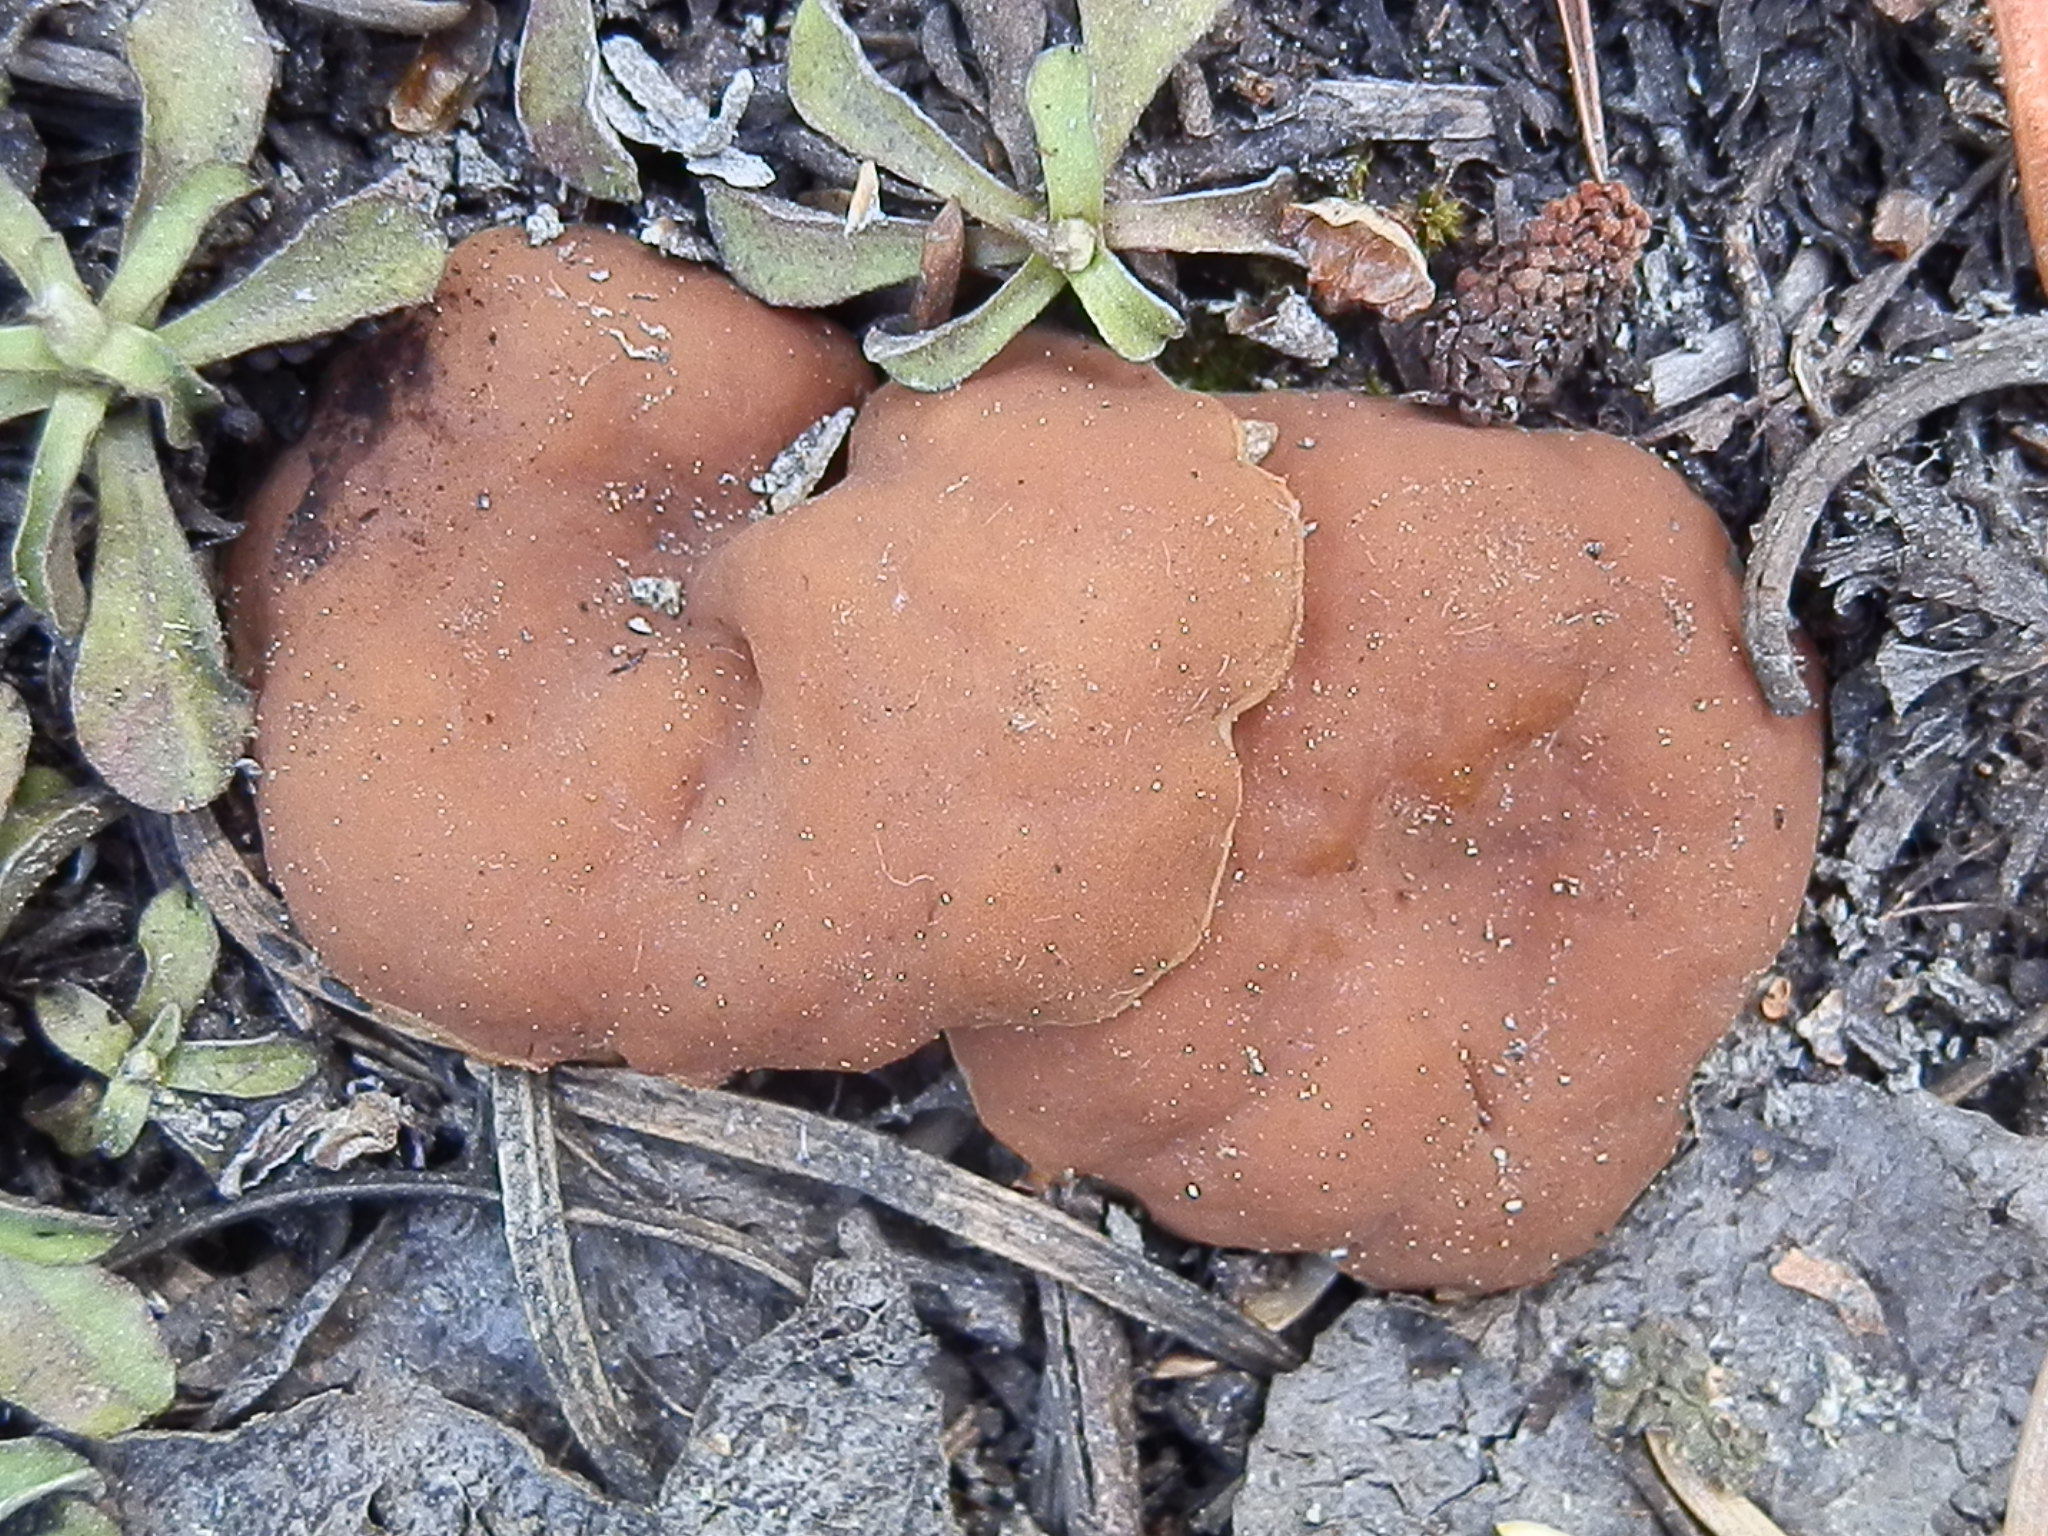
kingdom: Fungi
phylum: Ascomycota
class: Pezizomycetes
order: Pezizales
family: Discinaceae
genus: Gyromitra
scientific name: Gyromitra accumbens
